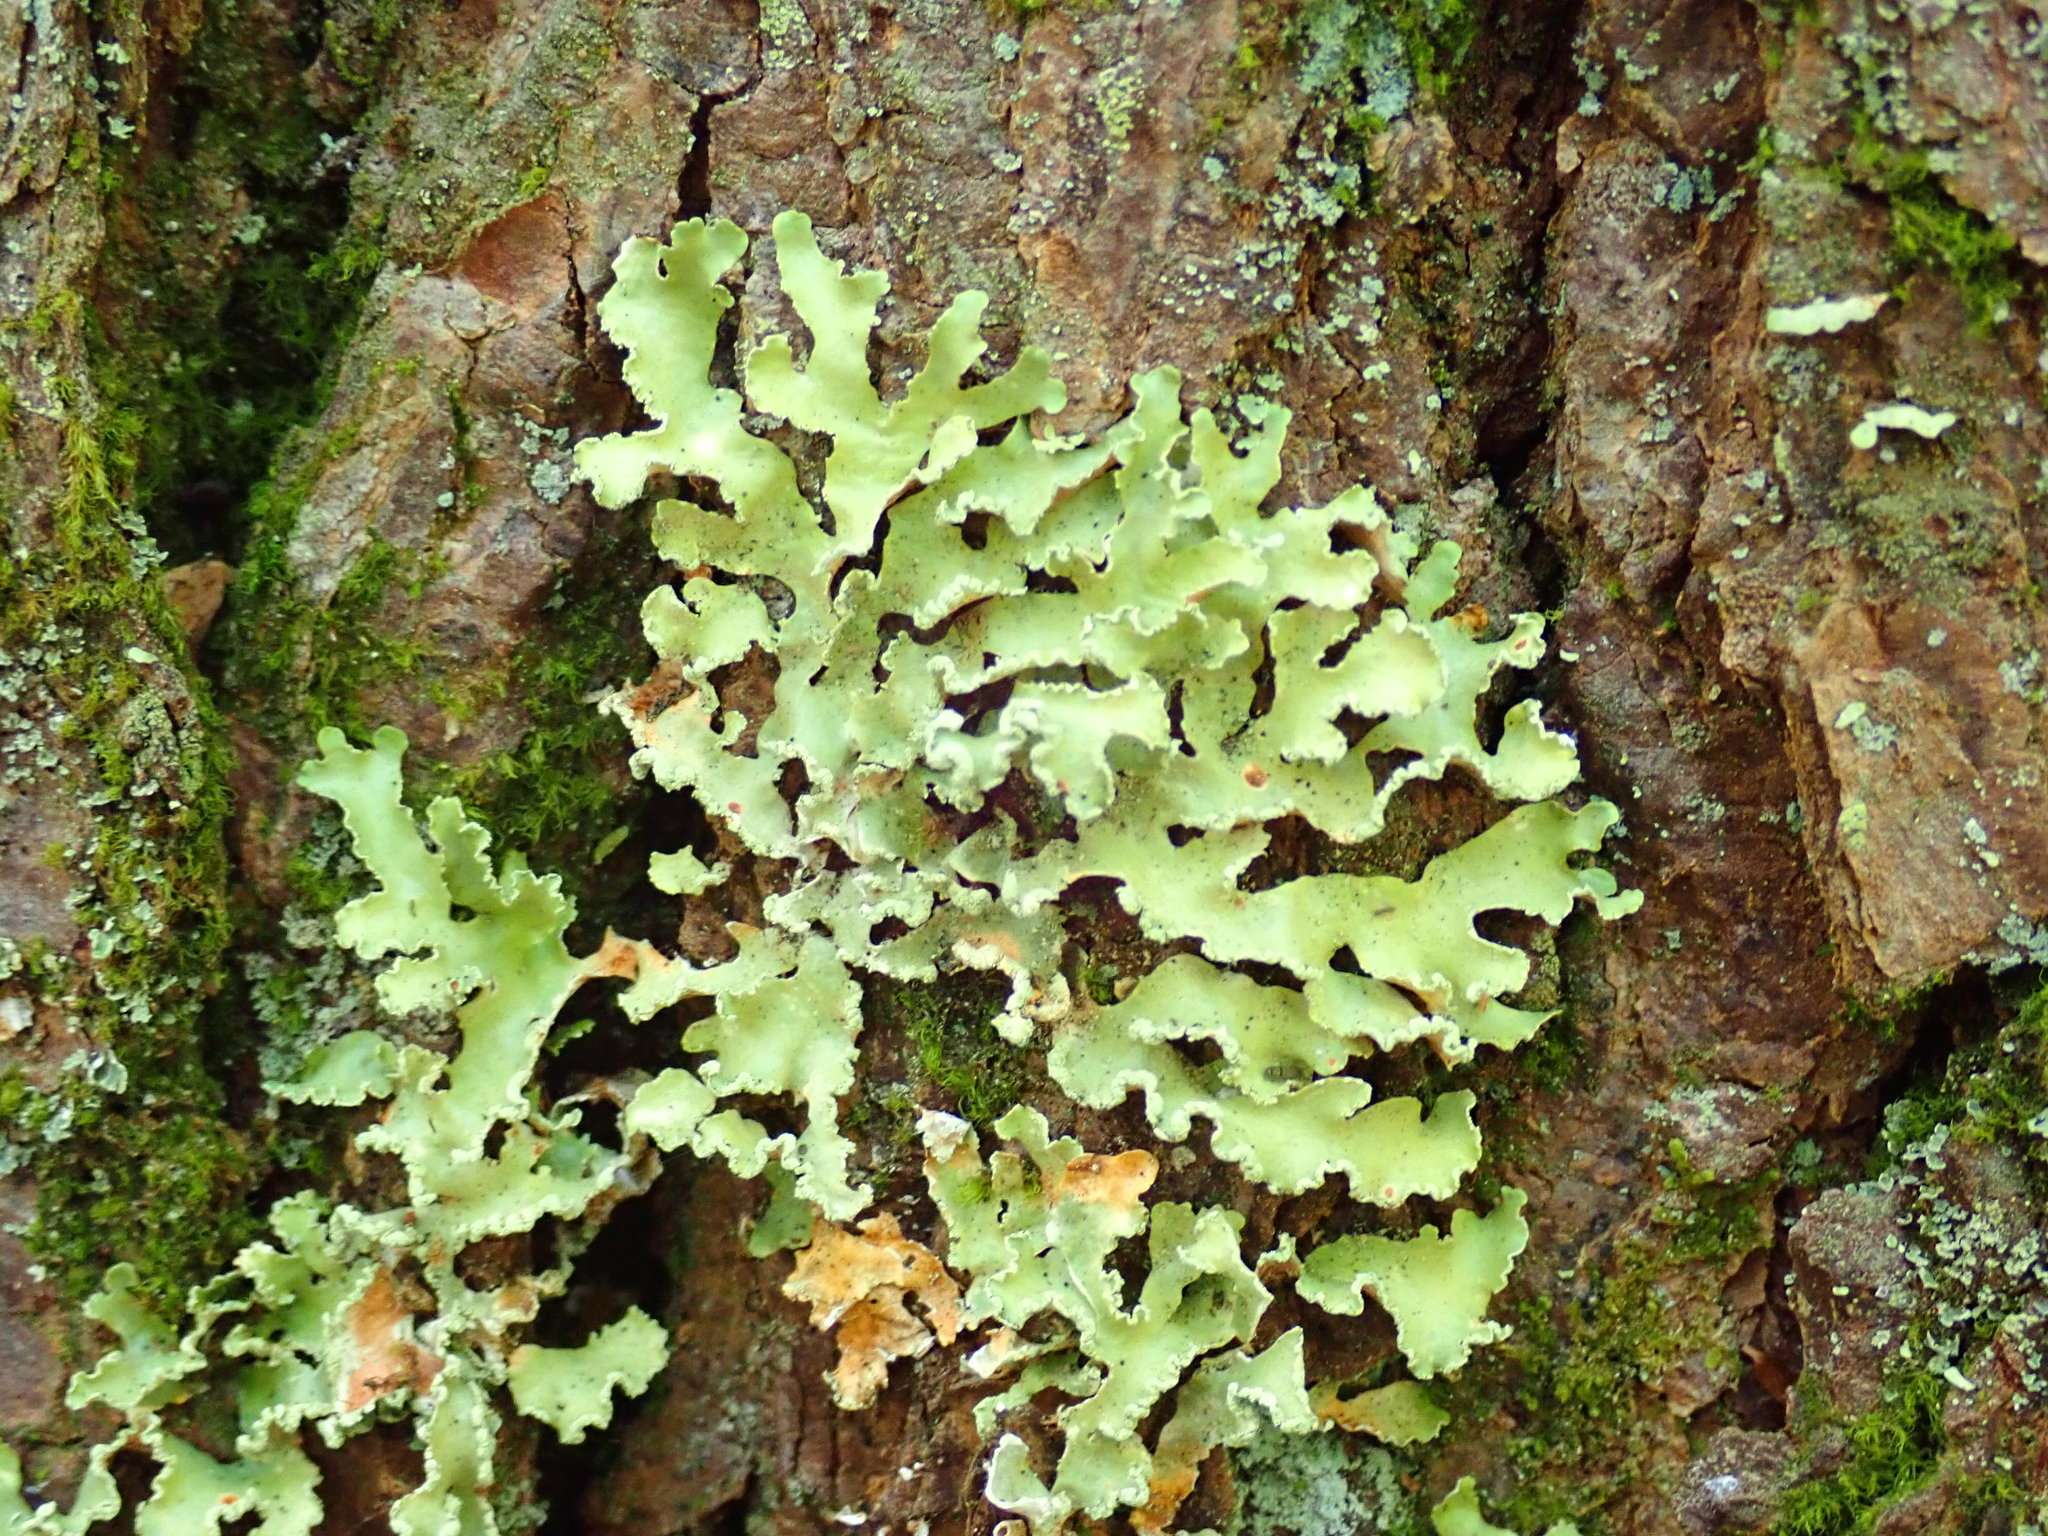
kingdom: Fungi
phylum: Ascomycota
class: Lecanoromycetes
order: Lecanorales
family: Parmeliaceae
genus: Usnocetraria
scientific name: Usnocetraria oakesiana
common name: Yellow ribbon lichen
